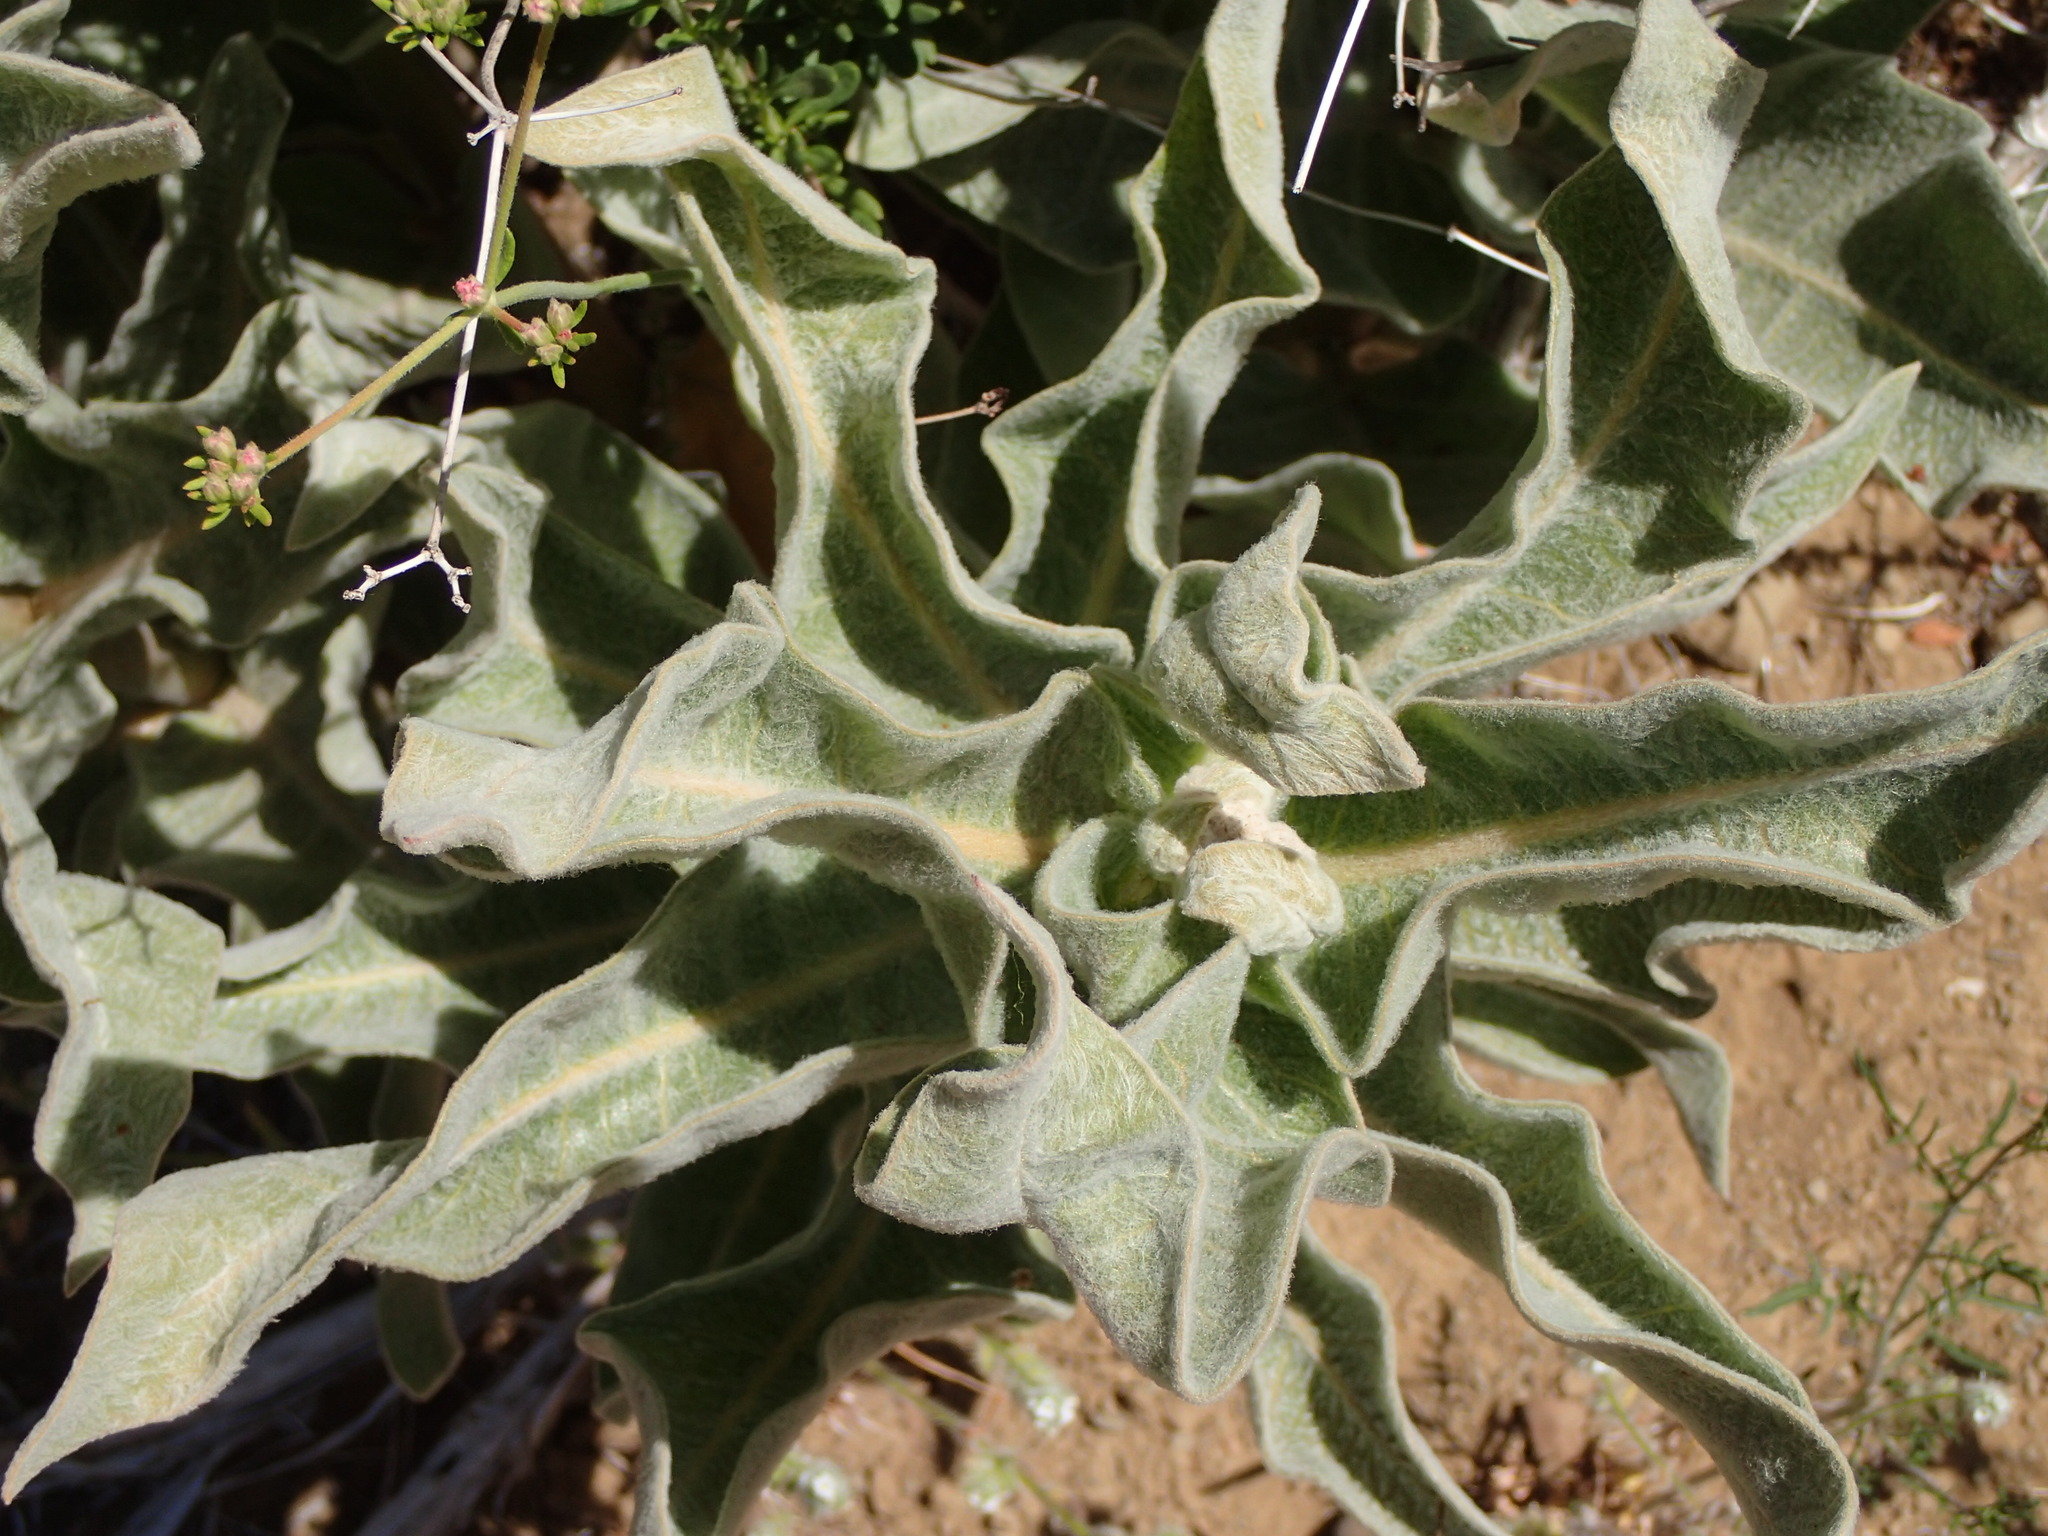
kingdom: Plantae
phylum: Tracheophyta
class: Magnoliopsida
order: Gentianales
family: Apocynaceae
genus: Asclepias
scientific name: Asclepias eriocarpa
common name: Indian milkweed
